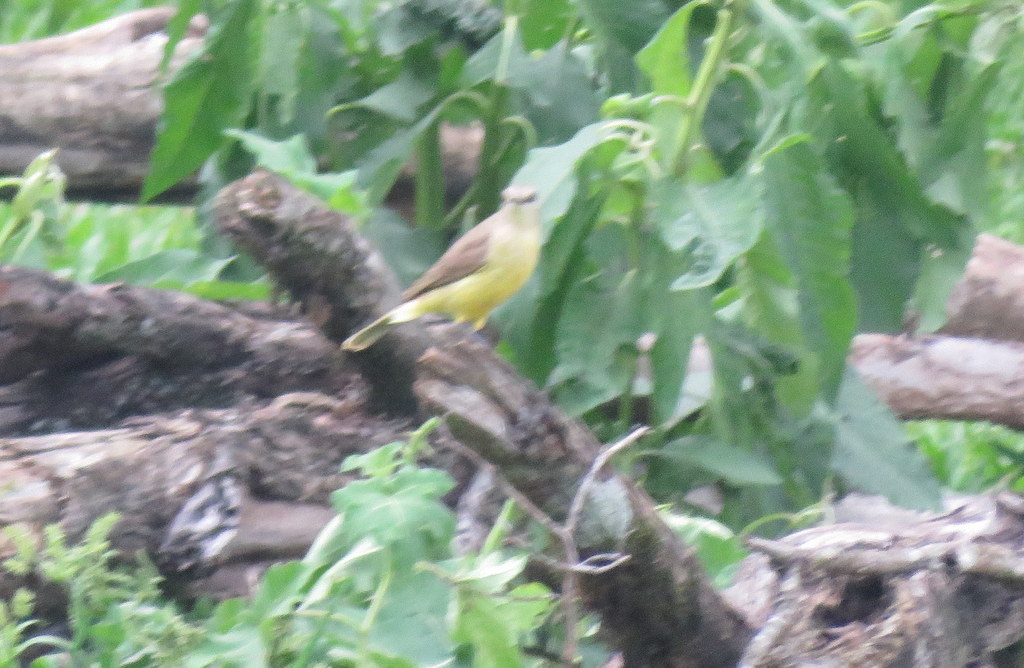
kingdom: Animalia
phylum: Chordata
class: Aves
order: Passeriformes
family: Tyrannidae
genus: Machetornis
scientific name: Machetornis rixosa
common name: Cattle tyrant
